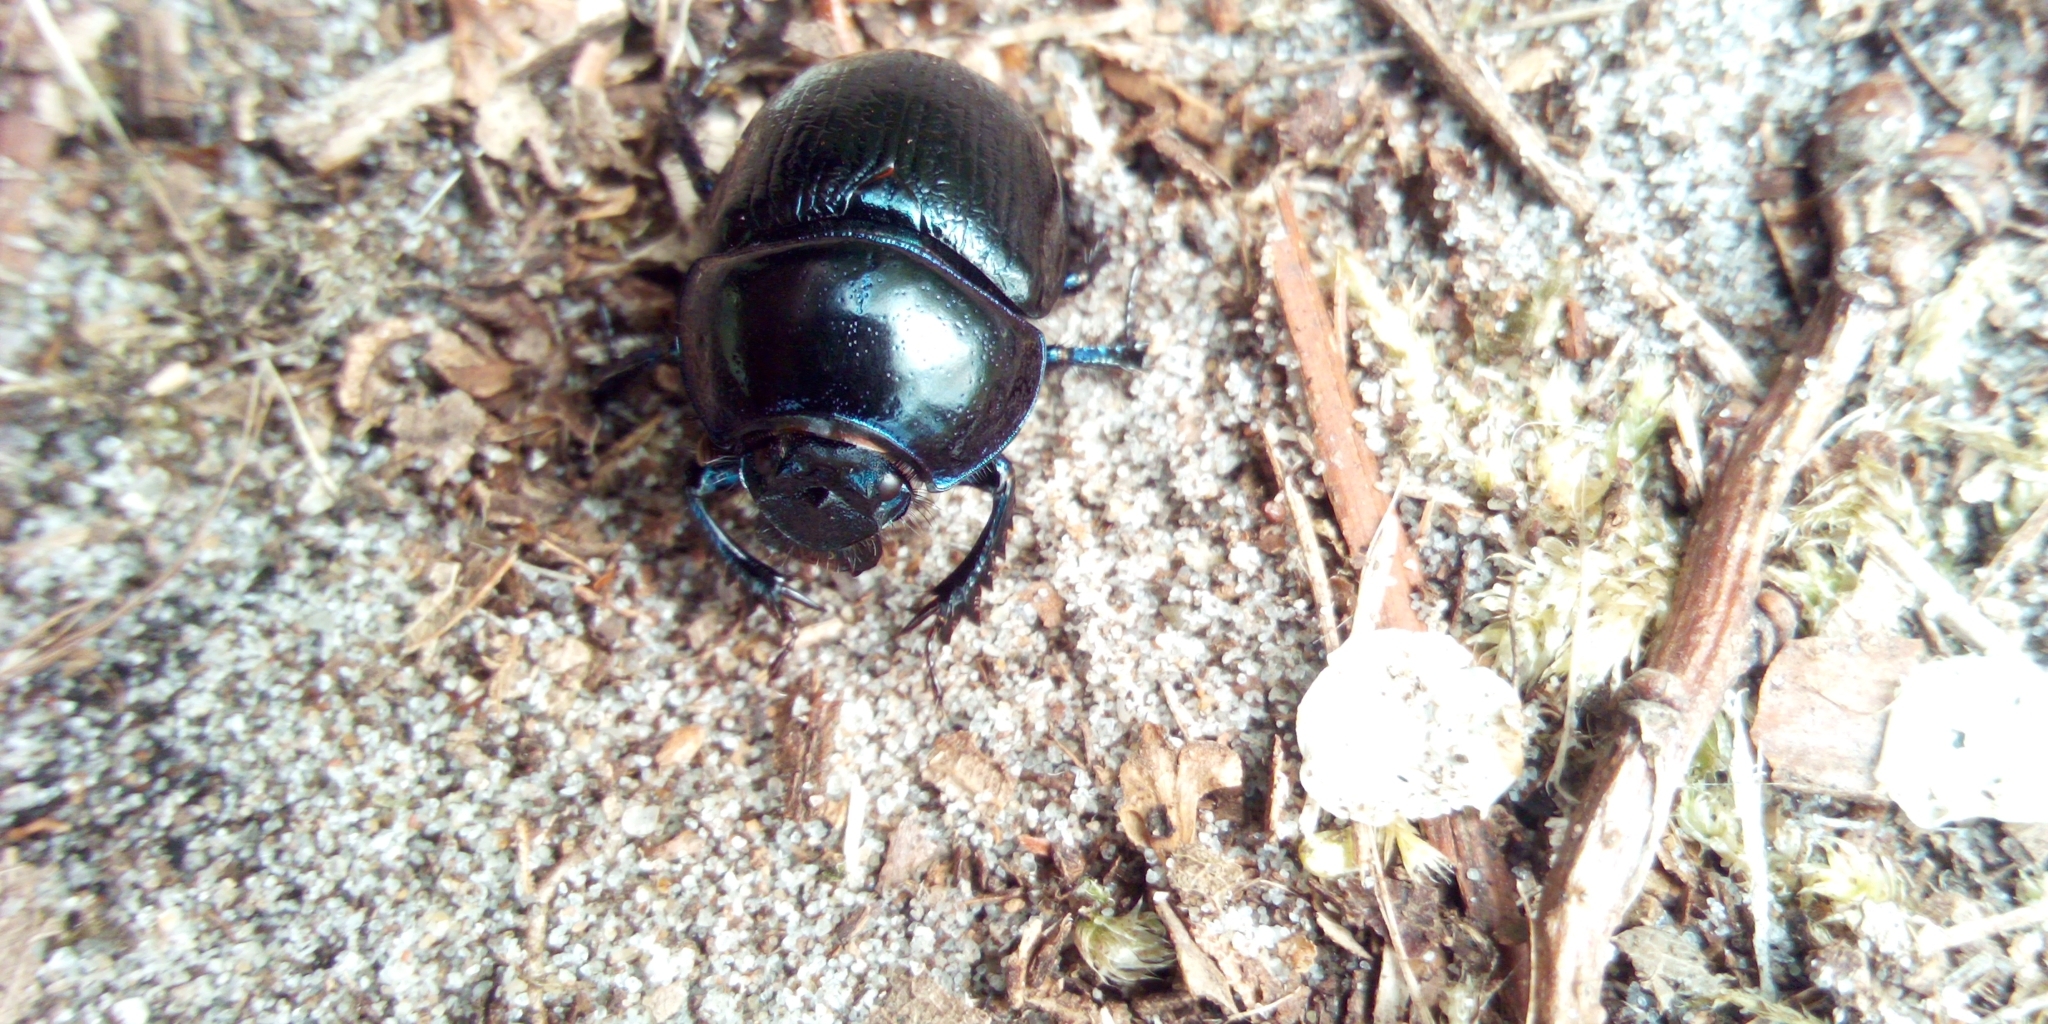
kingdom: Animalia
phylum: Arthropoda
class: Insecta
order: Coleoptera
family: Geotrupidae
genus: Anoplotrupes
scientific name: Anoplotrupes stercorosus
